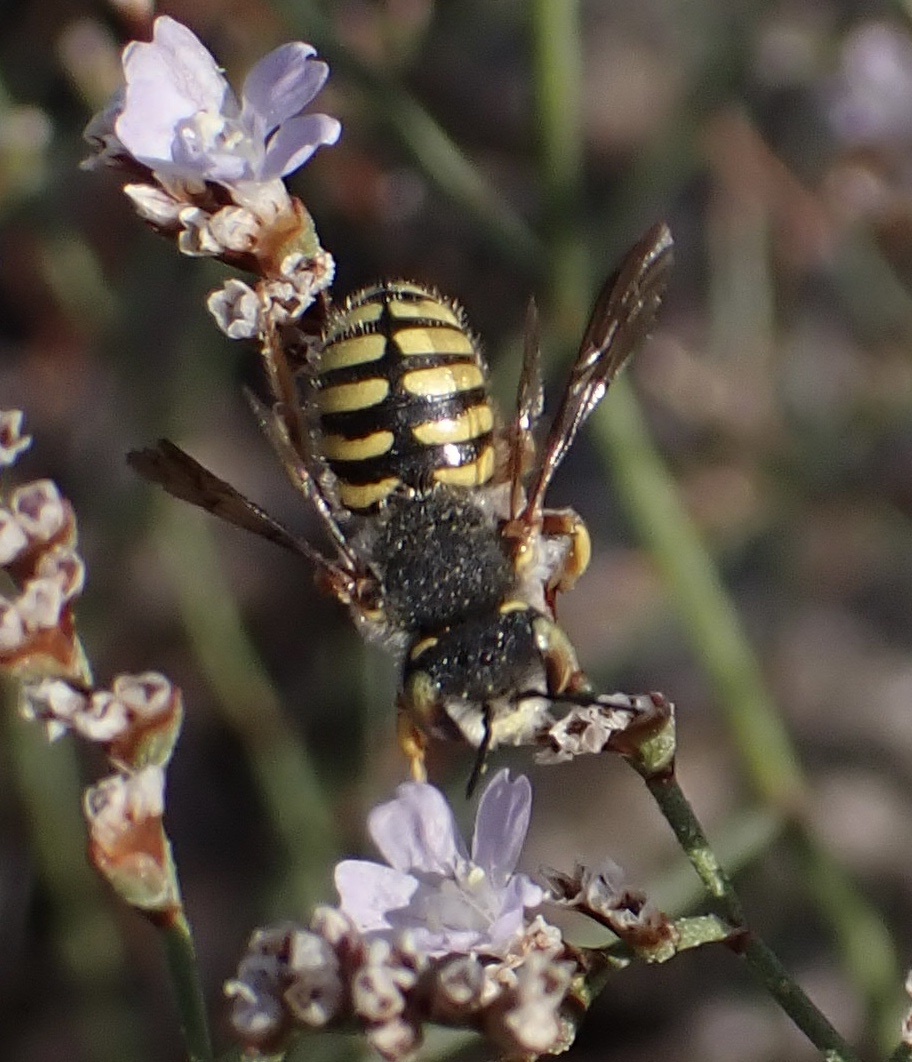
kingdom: Animalia
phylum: Arthropoda
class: Insecta
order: Hymenoptera
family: Megachilidae
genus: Anthidium
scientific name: Anthidium oblongatum
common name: Oblong wool carder bee
